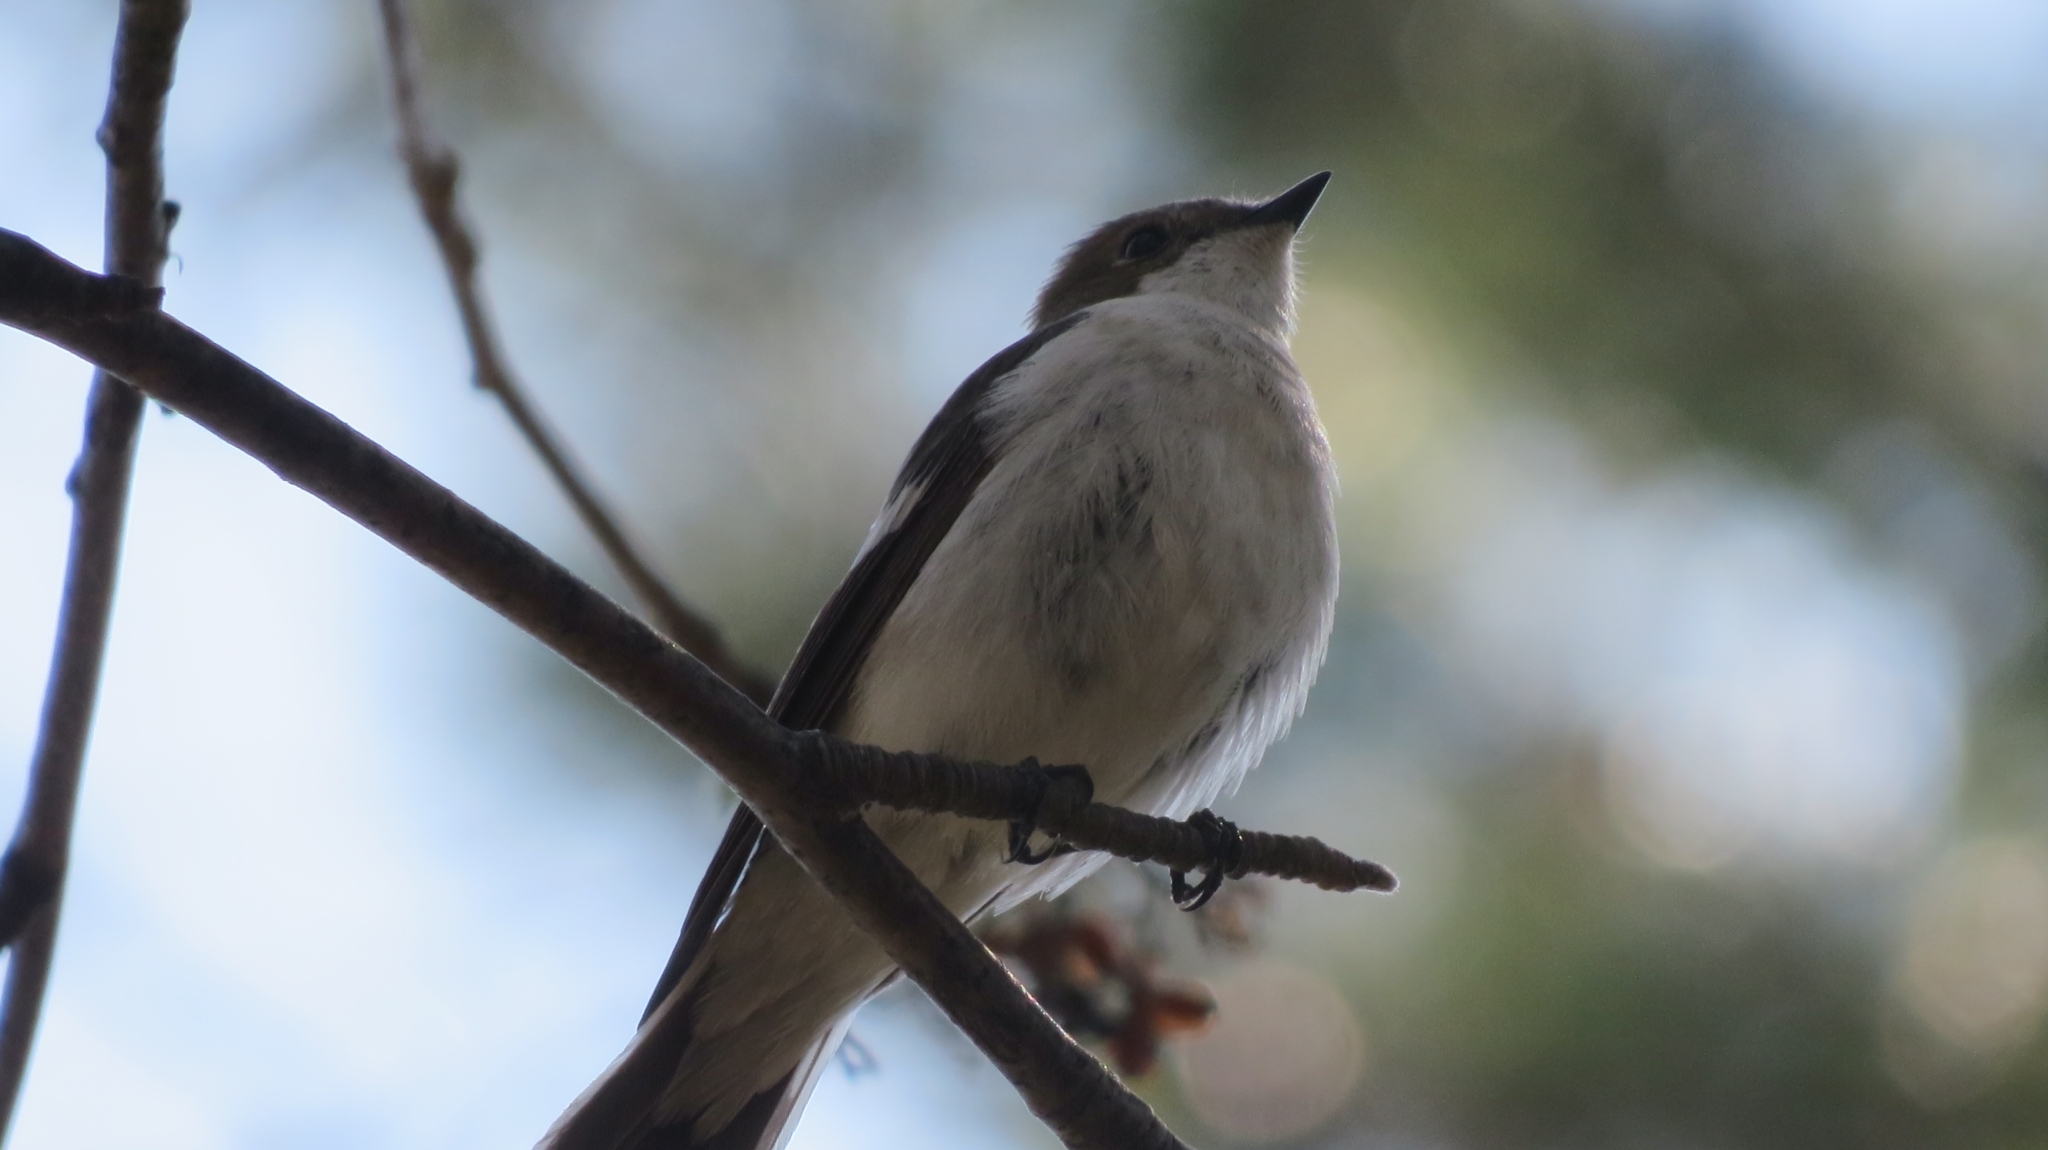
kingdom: Animalia
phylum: Chordata
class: Aves
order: Passeriformes
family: Muscicapidae
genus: Ficedula
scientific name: Ficedula hypoleuca
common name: European pied flycatcher
